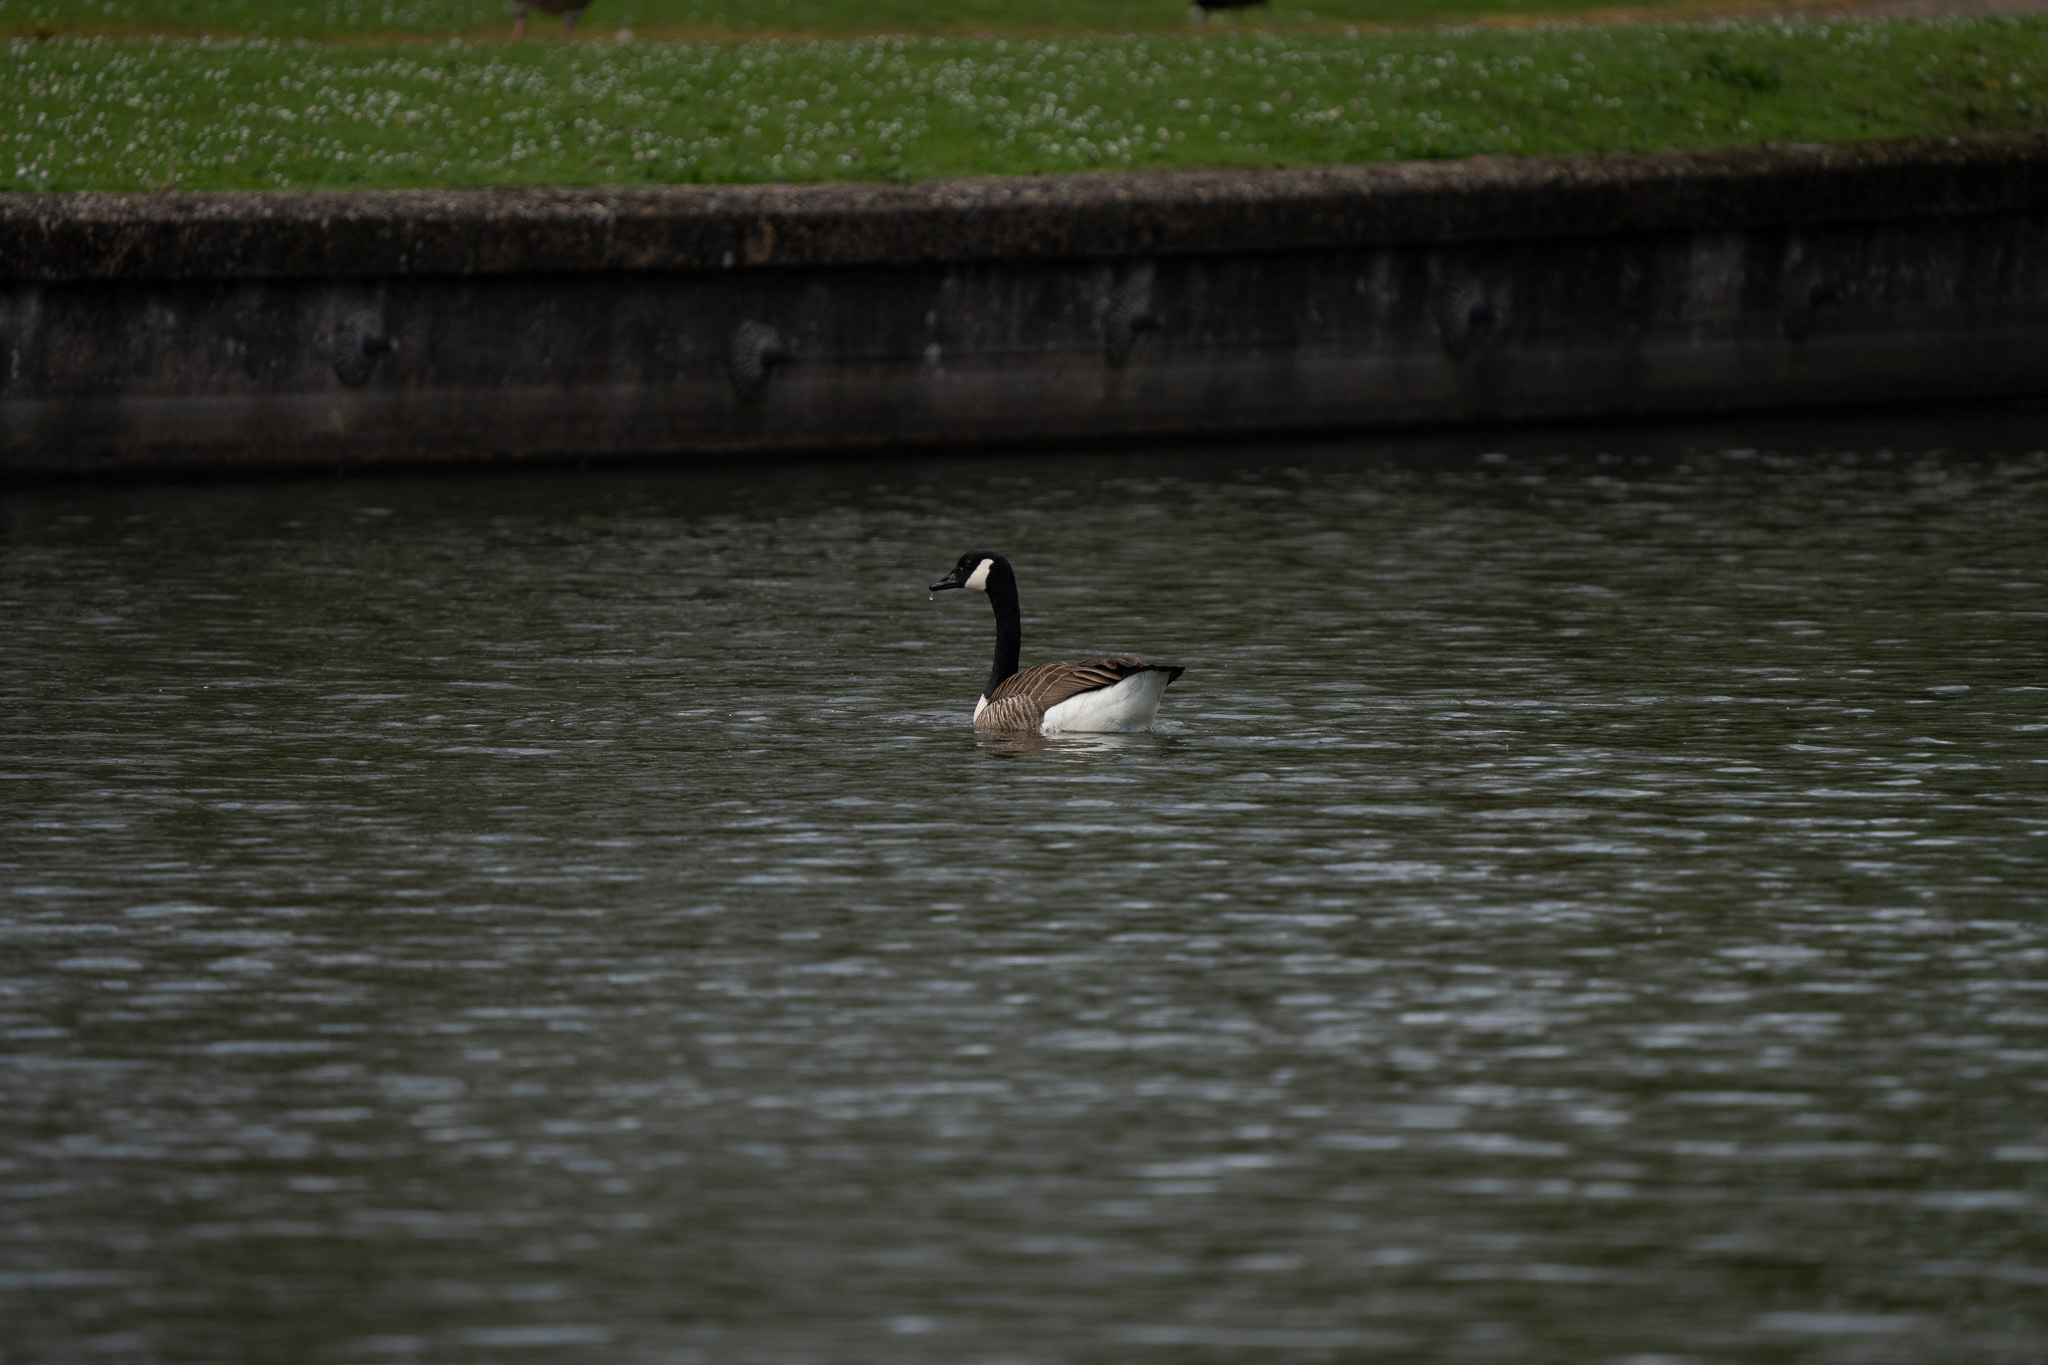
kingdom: Animalia
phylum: Chordata
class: Aves
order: Anseriformes
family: Anatidae
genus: Branta
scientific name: Branta canadensis
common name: Canada goose
